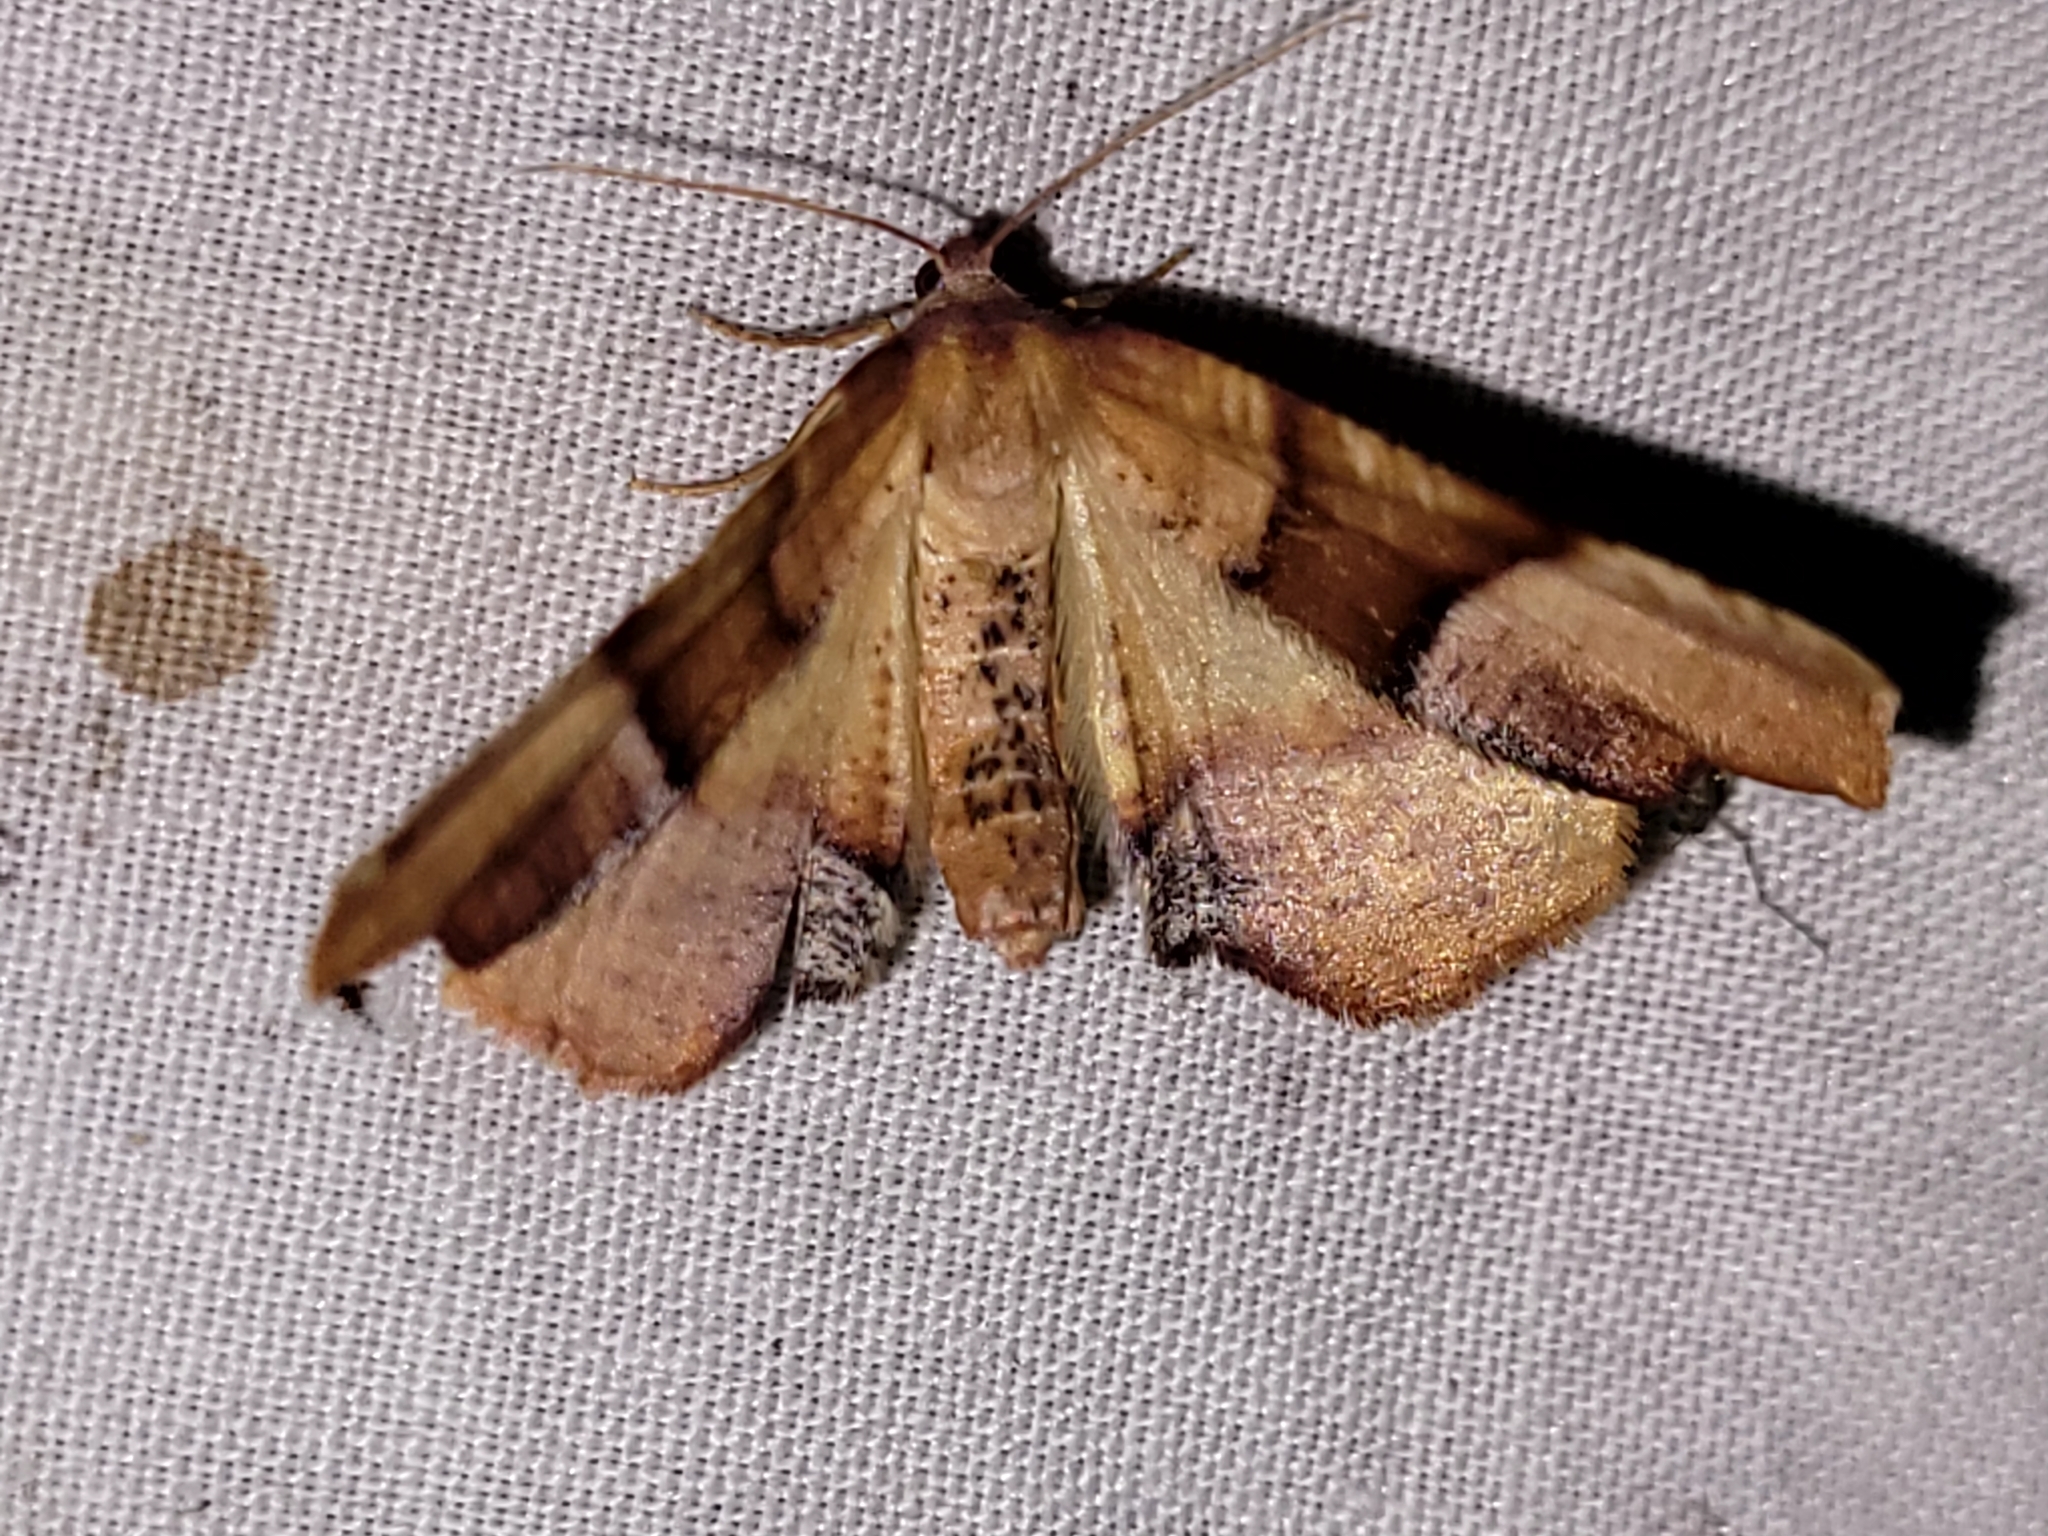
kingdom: Animalia
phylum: Arthropoda
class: Insecta
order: Lepidoptera
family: Geometridae
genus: Plagodis
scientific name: Plagodis phlogosaria
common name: Straight-lined plagodis
